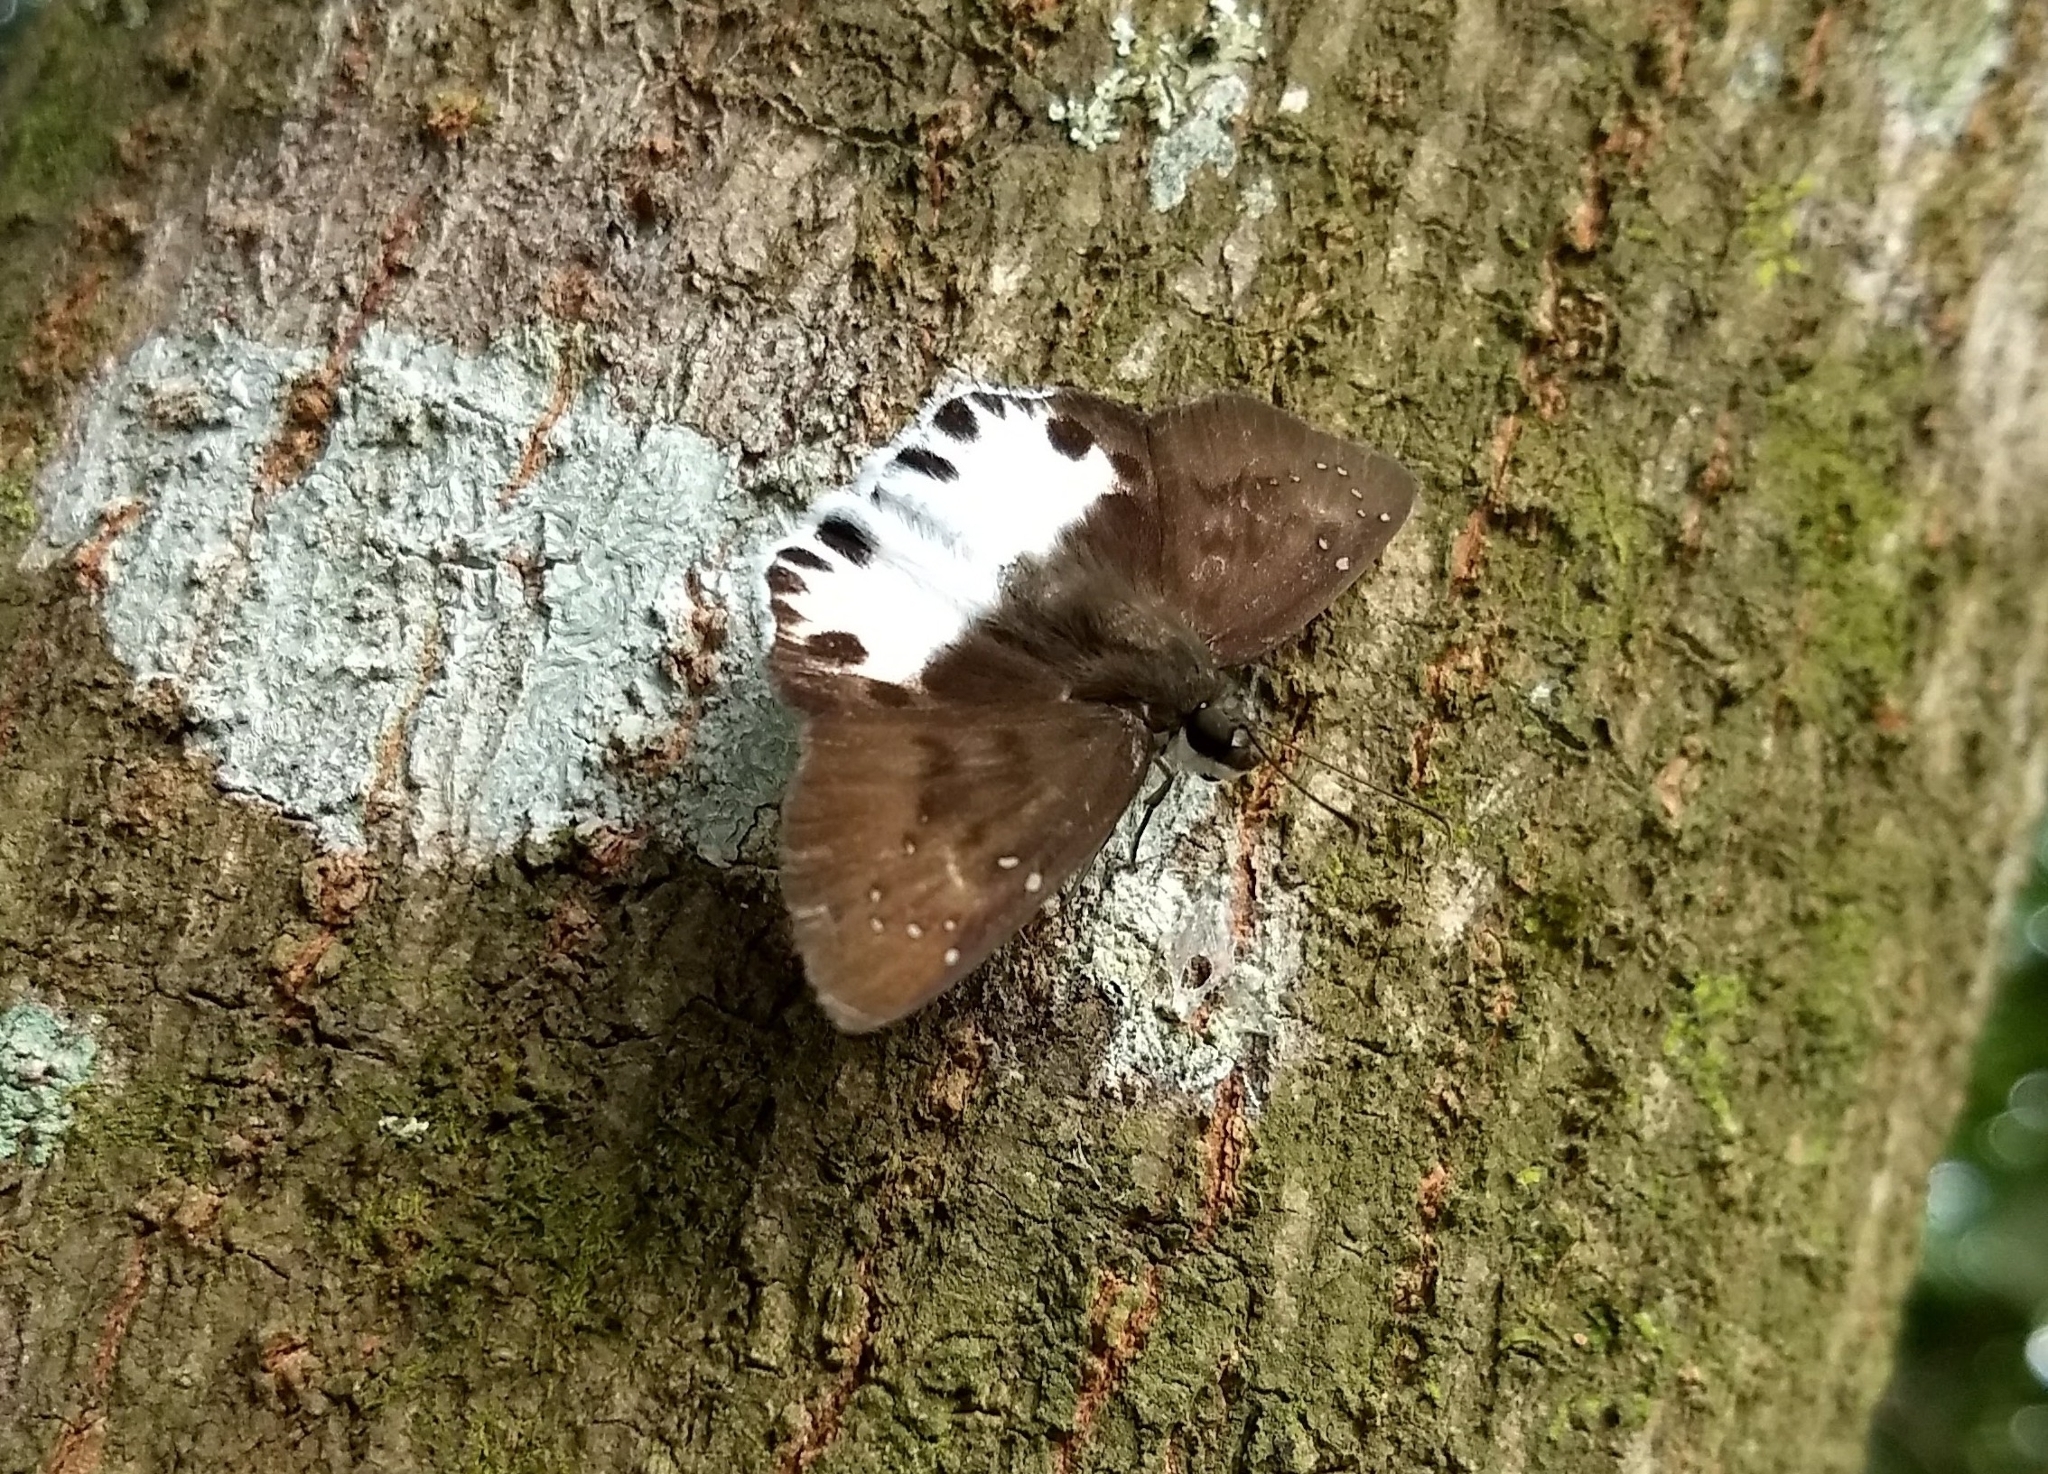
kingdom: Animalia
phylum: Arthropoda
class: Insecta
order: Lepidoptera
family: Hesperiidae
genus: Tagiades
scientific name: Tagiades litigiosa
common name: Water snow flat
